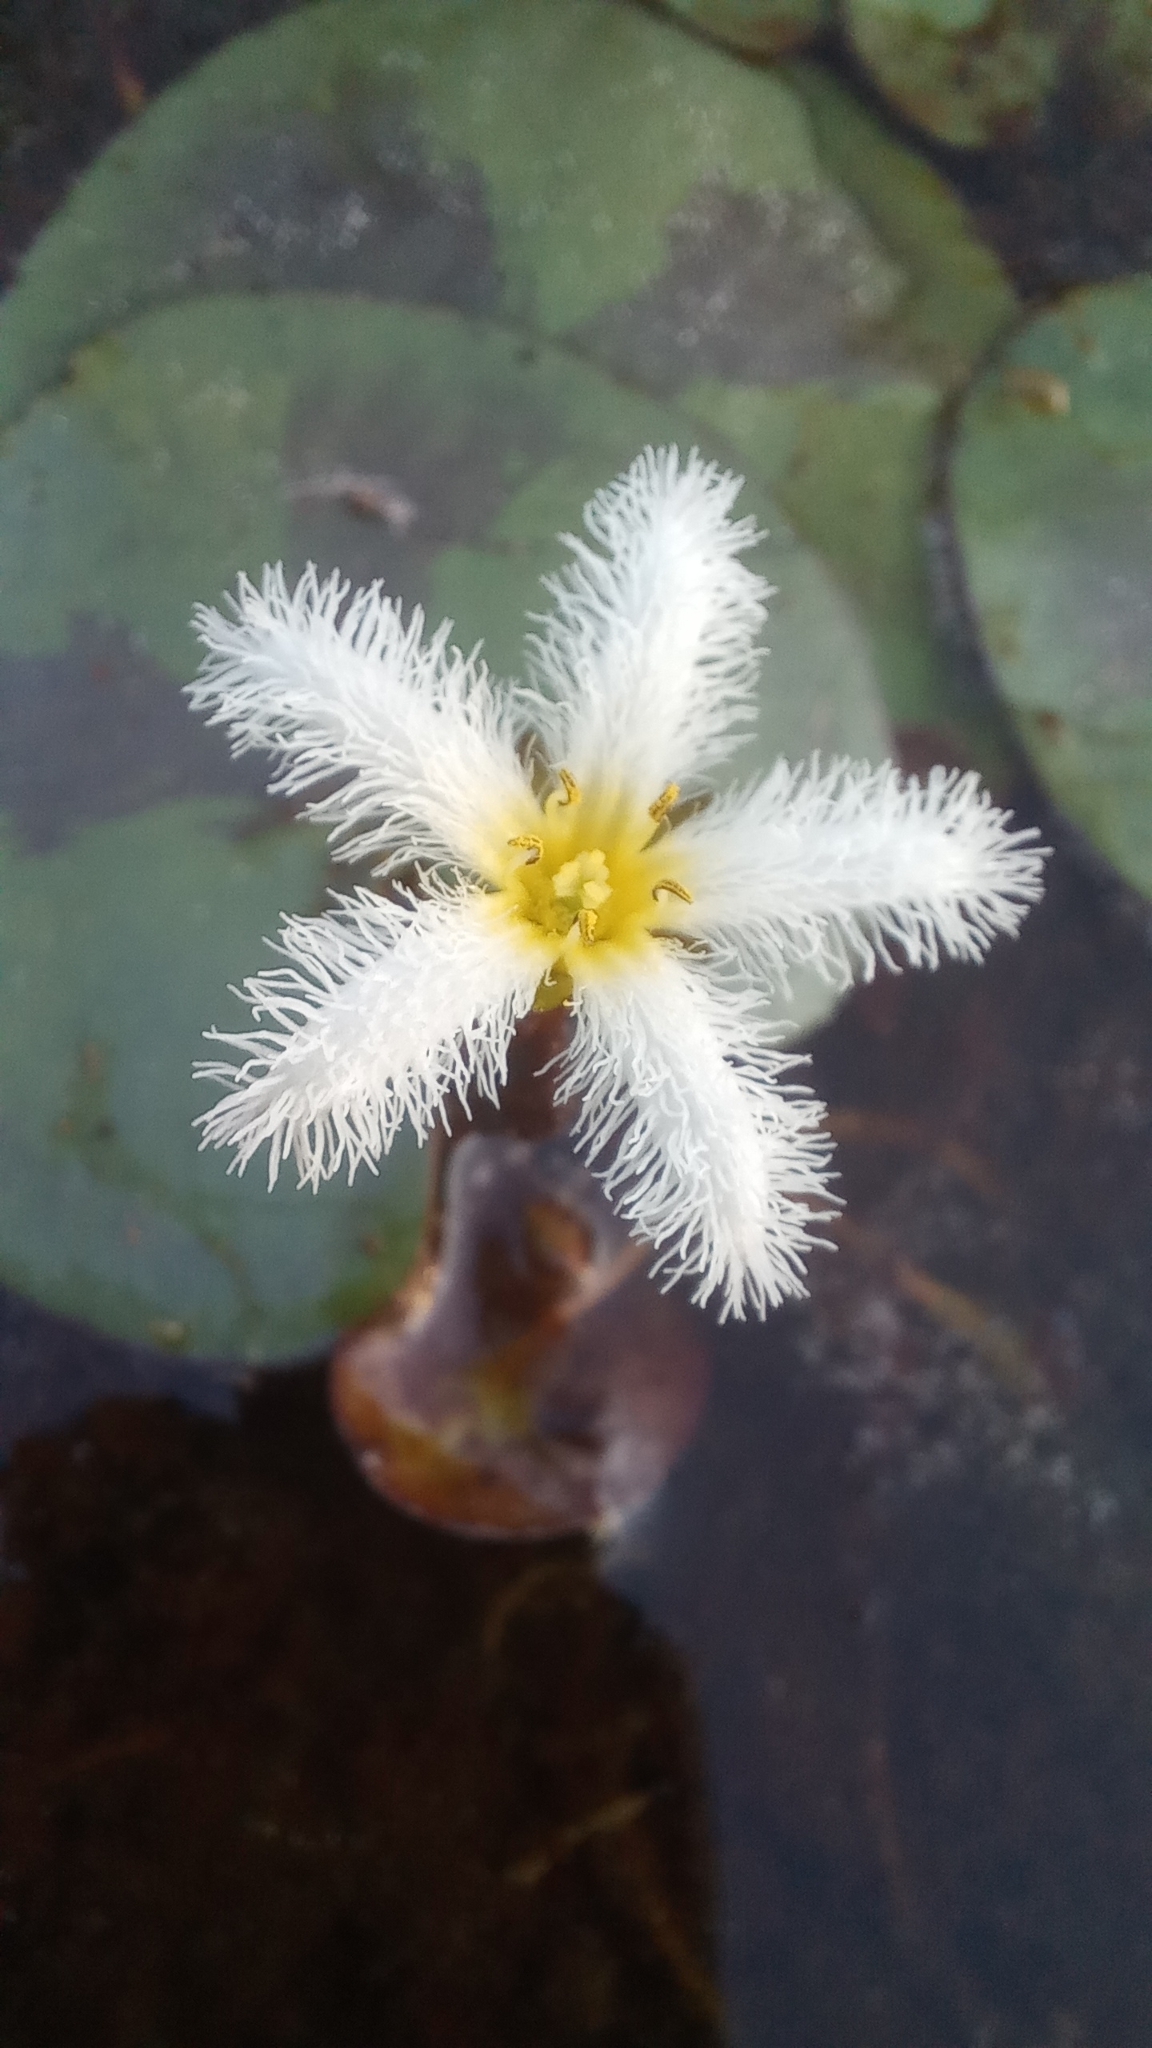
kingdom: Plantae
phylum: Tracheophyta
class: Magnoliopsida
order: Asterales
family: Menyanthaceae
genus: Nymphoides
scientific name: Nymphoides humboldtiana
